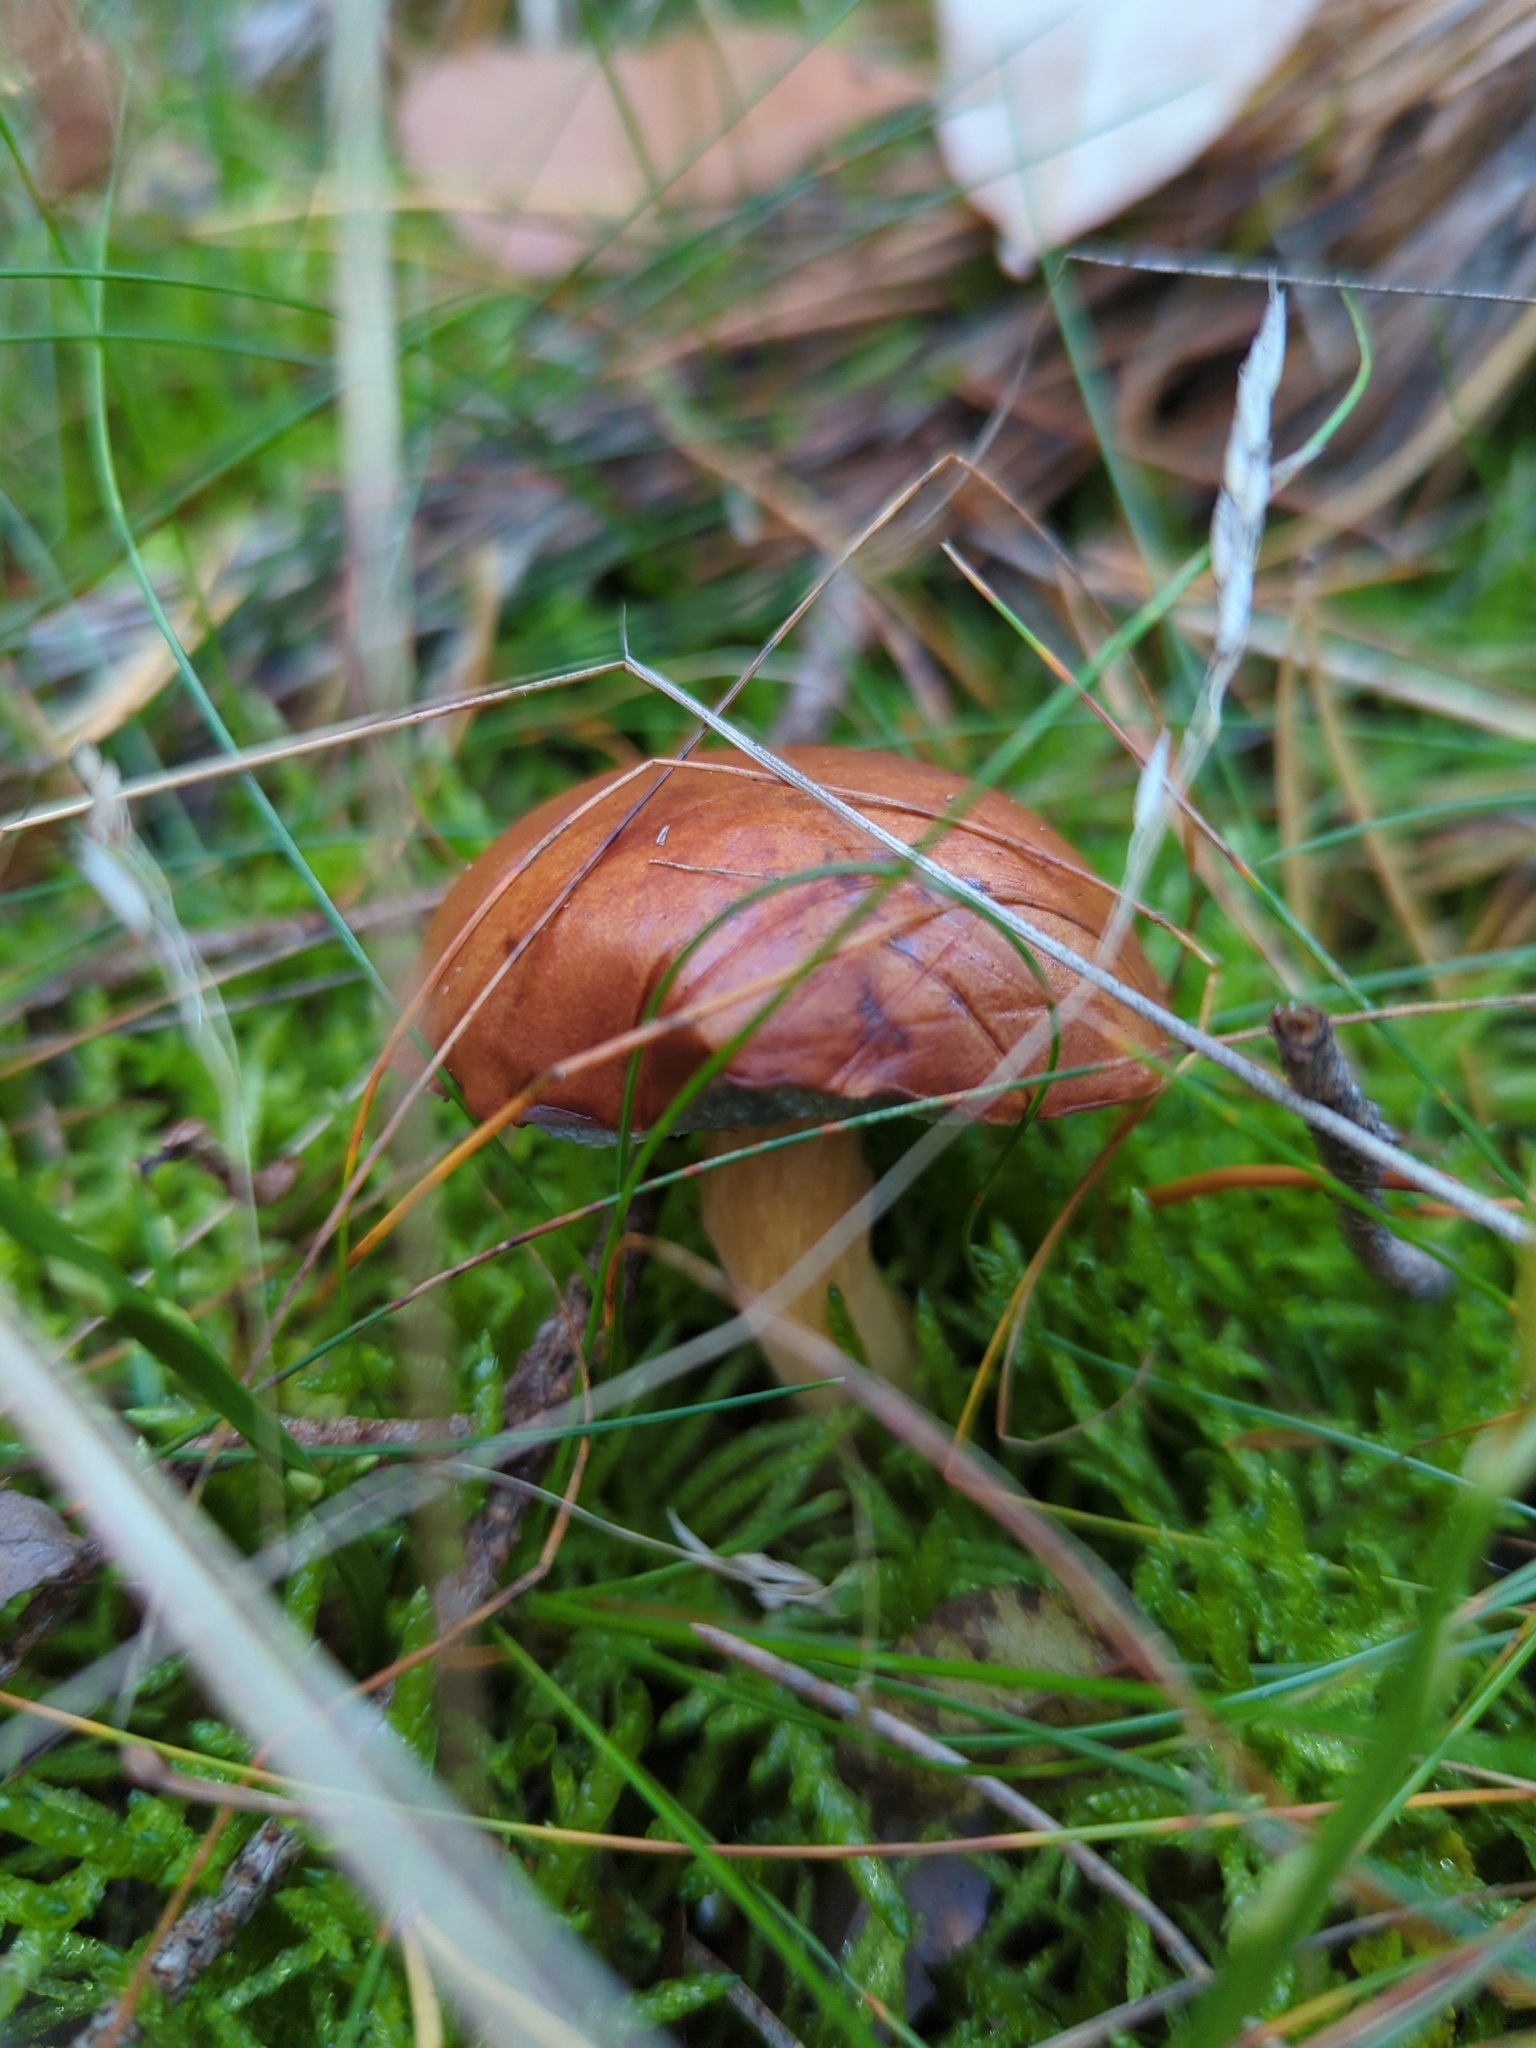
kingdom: Fungi
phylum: Basidiomycota
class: Agaricomycetes
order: Boletales
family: Boletaceae
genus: Imleria
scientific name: Imleria badia
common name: Bay bolete
